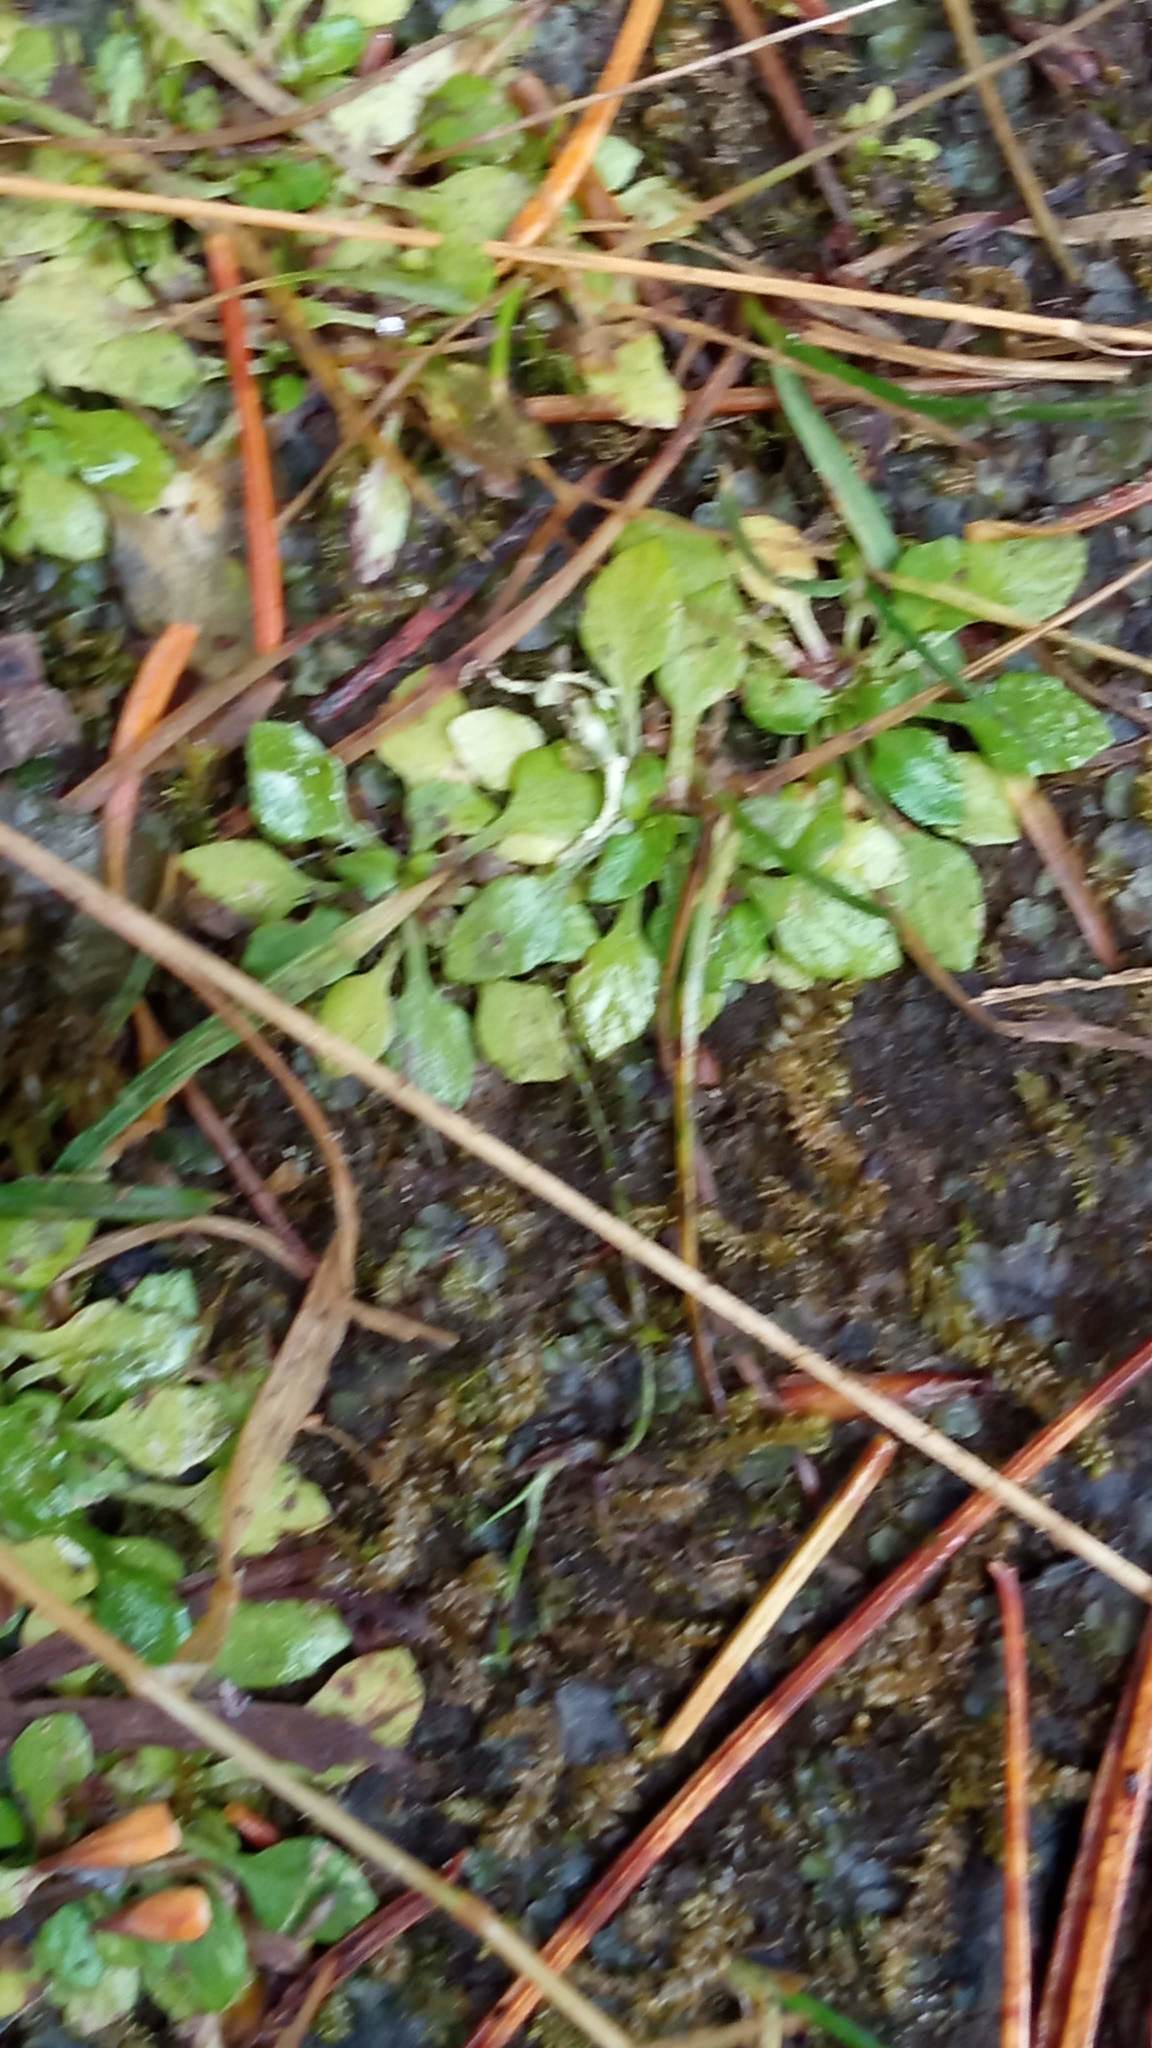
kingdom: Plantae
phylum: Tracheophyta
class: Magnoliopsida
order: Ericales
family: Primulaceae
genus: Androsace
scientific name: Androsace filiformis
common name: Filiform rock jasmine
